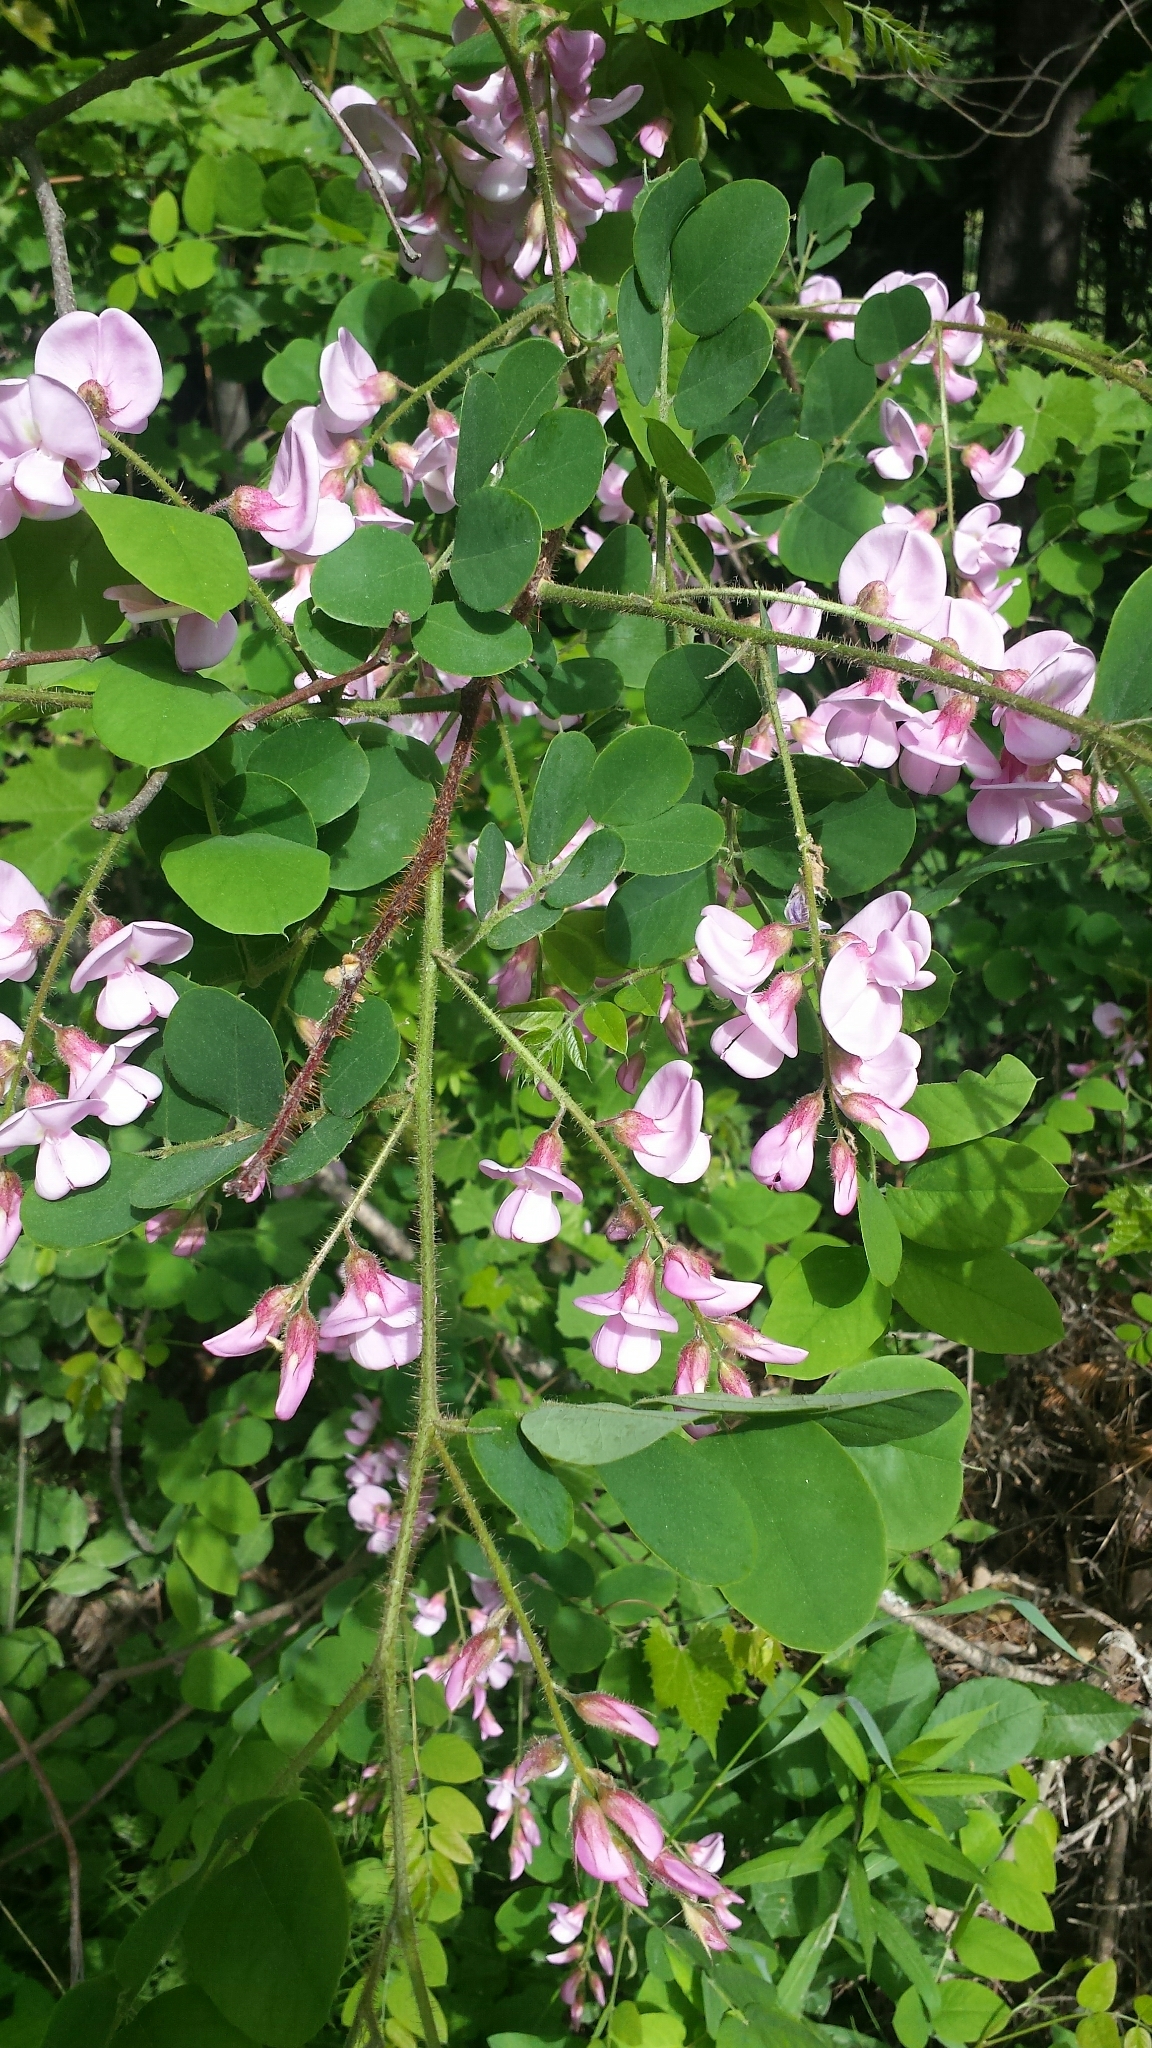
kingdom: Plantae
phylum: Tracheophyta
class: Magnoliopsida
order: Fabales
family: Fabaceae
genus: Robinia
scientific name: Robinia hispida
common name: Bristly locust
